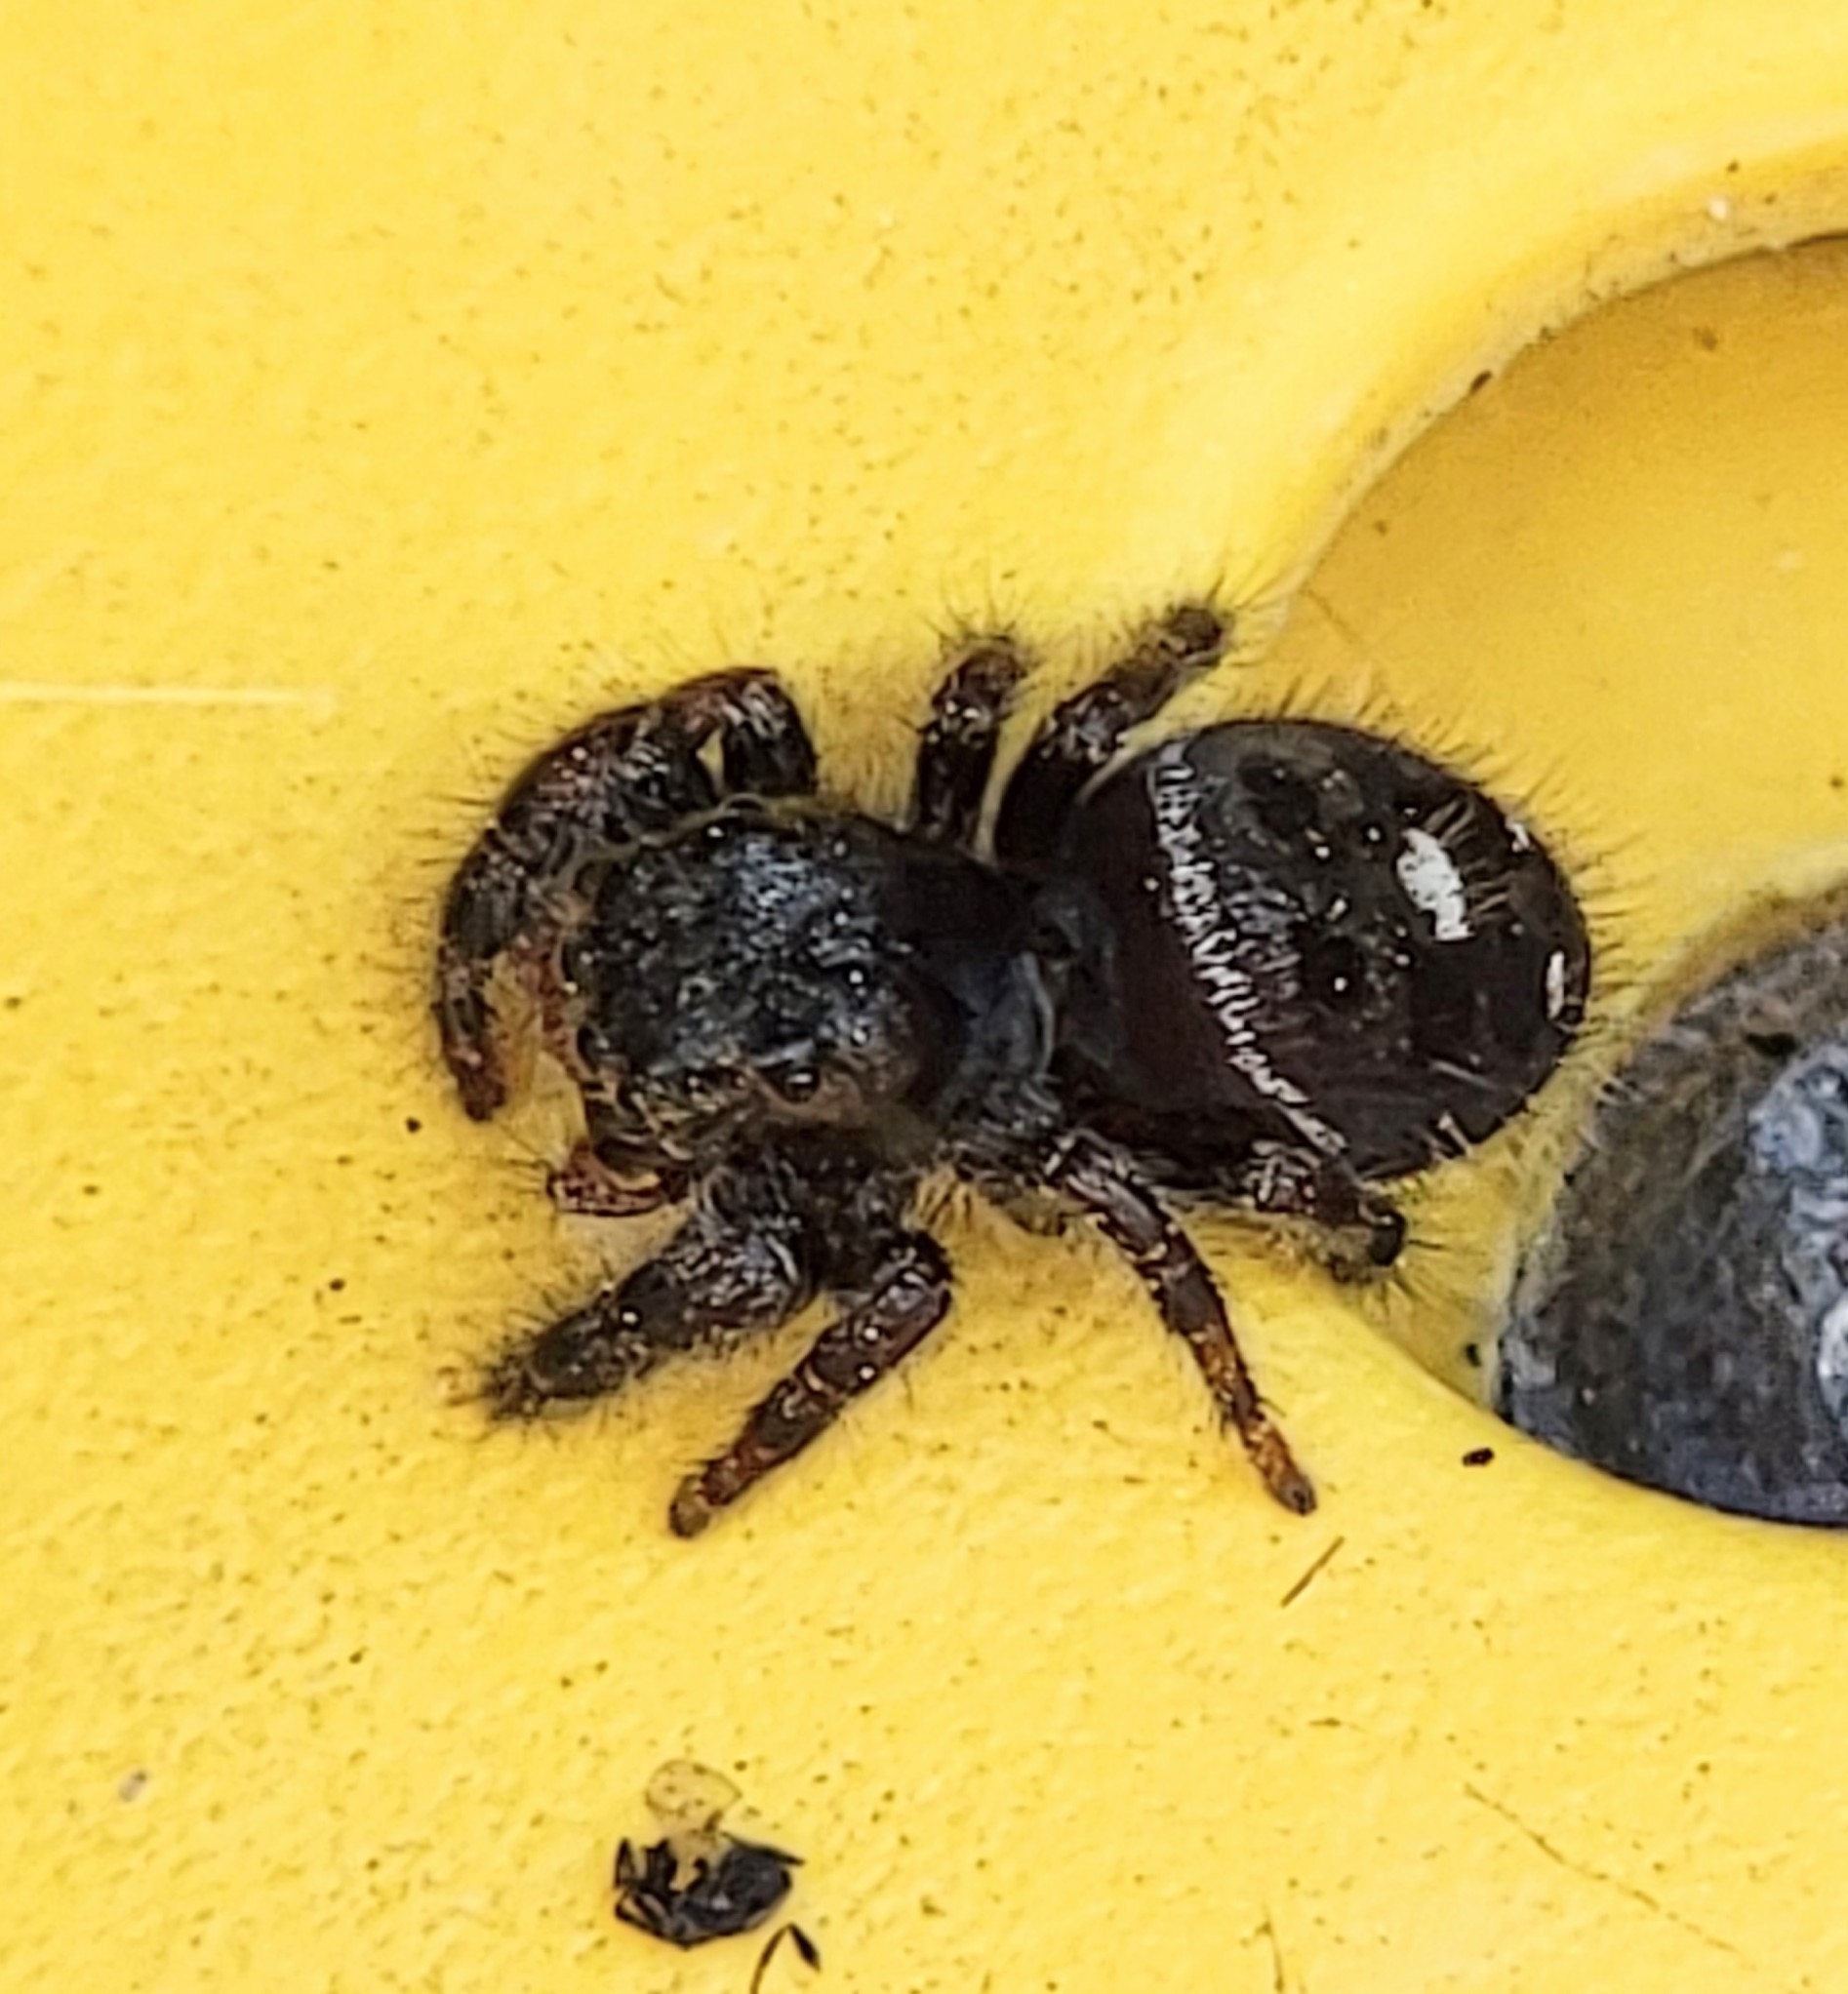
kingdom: Animalia
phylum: Arthropoda
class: Arachnida
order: Araneae
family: Salticidae
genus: Phidippus
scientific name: Phidippus audax
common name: Bold jumper
